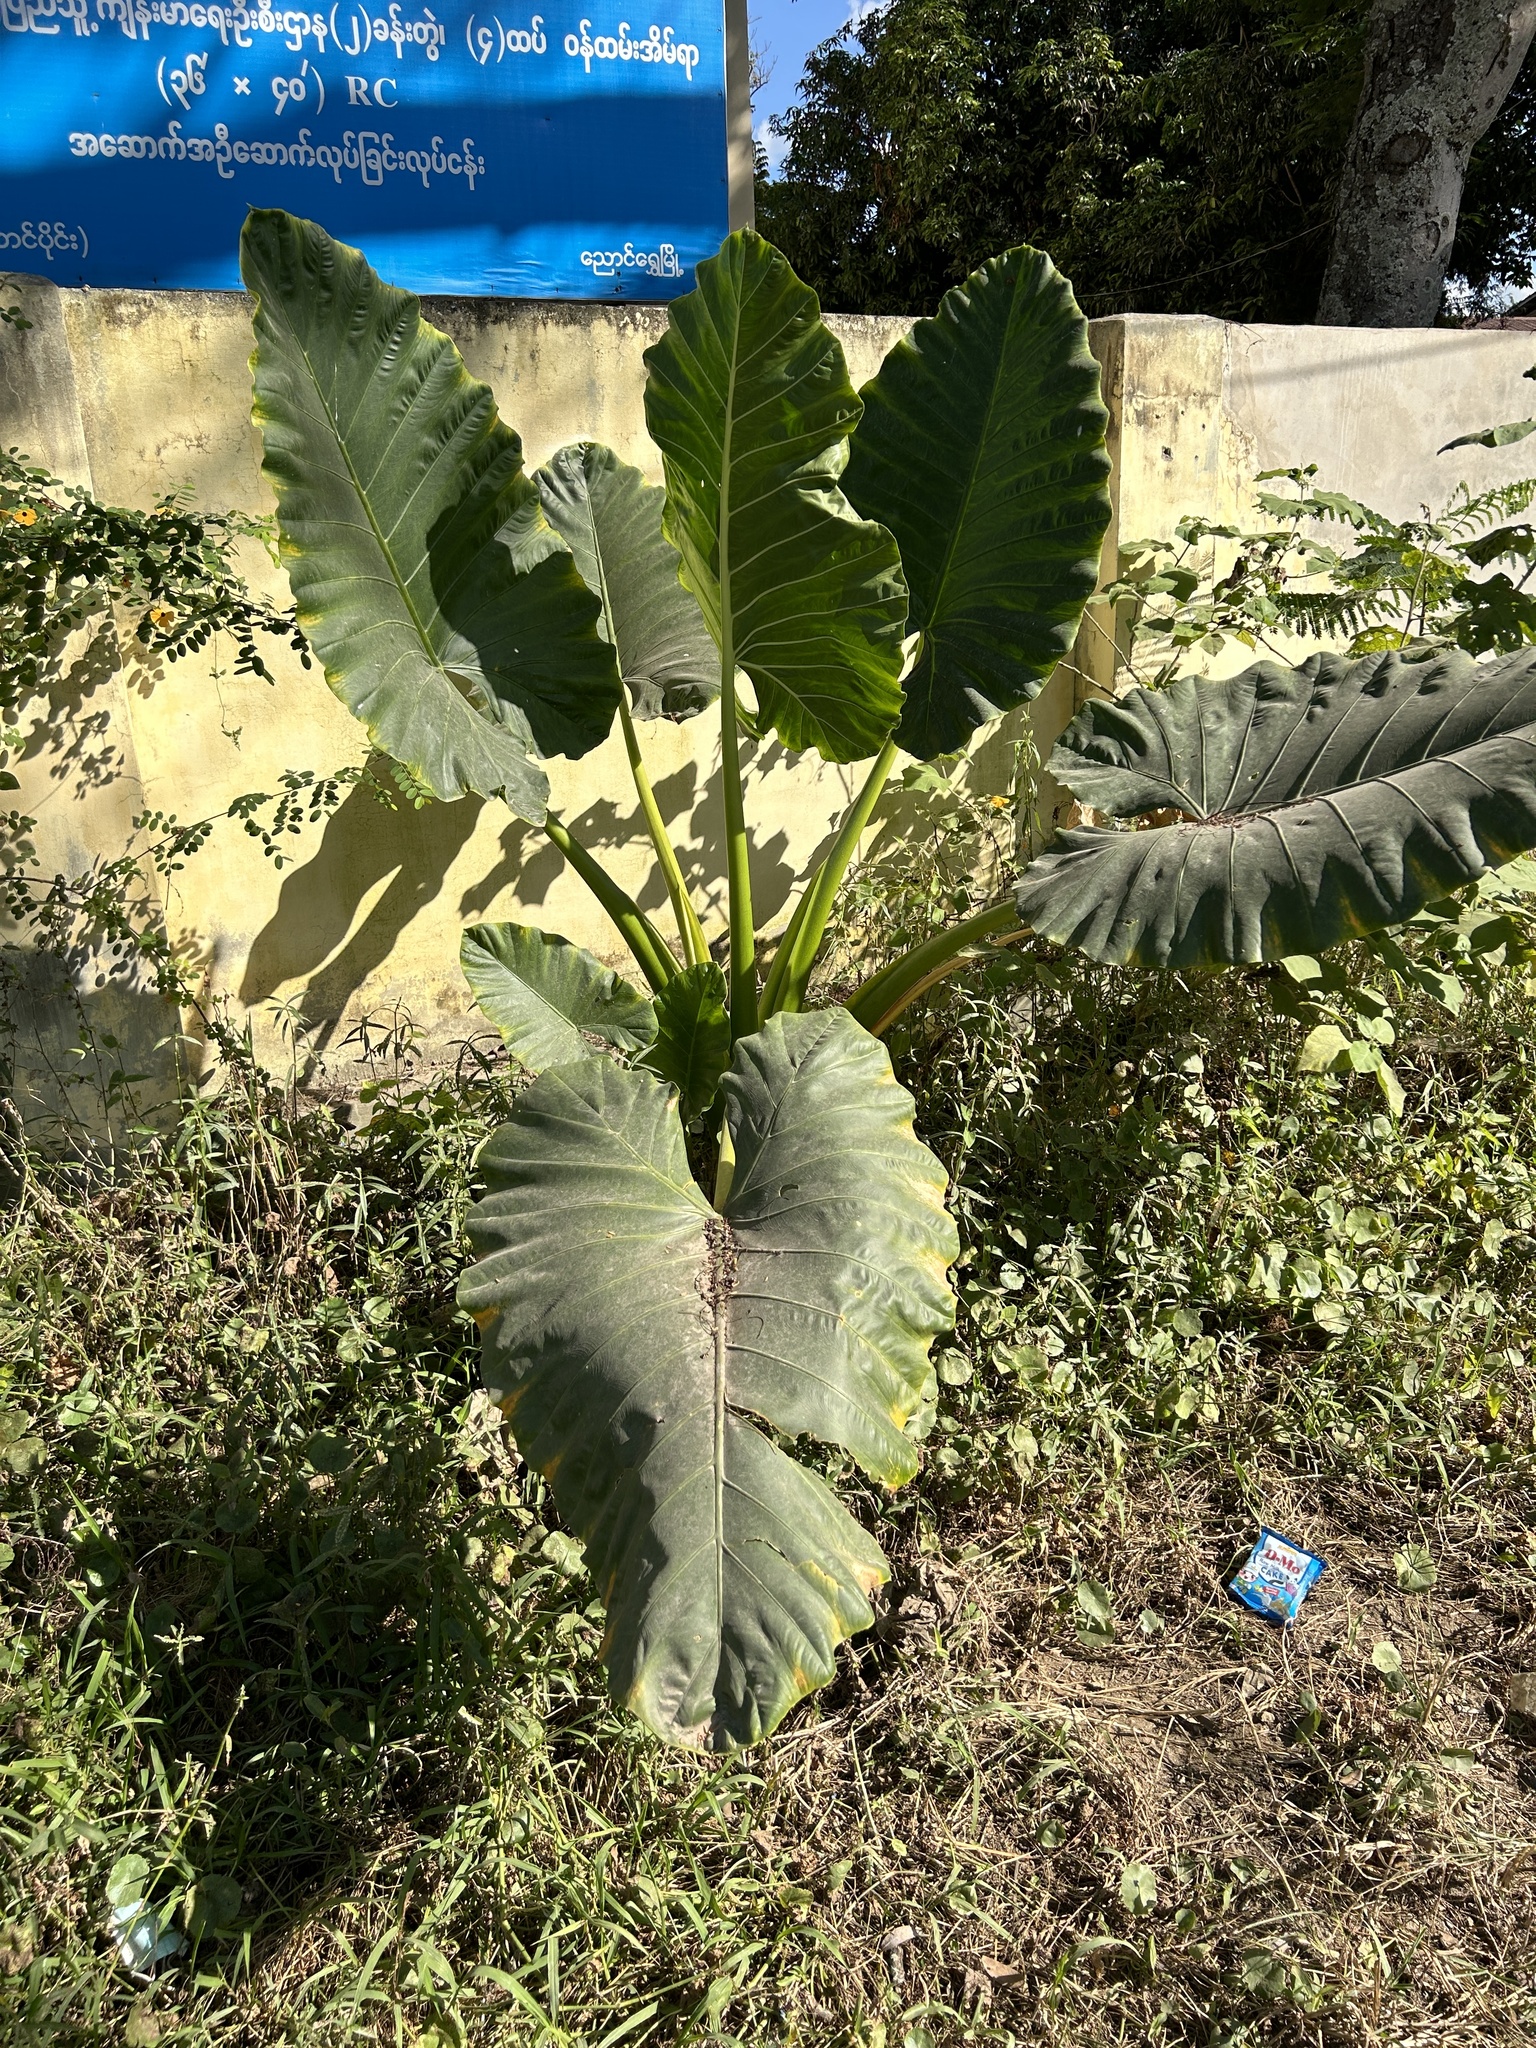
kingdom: Plantae
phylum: Tracheophyta
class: Liliopsida
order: Alismatales
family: Araceae
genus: Alocasia
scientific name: Alocasia macrorrhizos
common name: Giant taro
